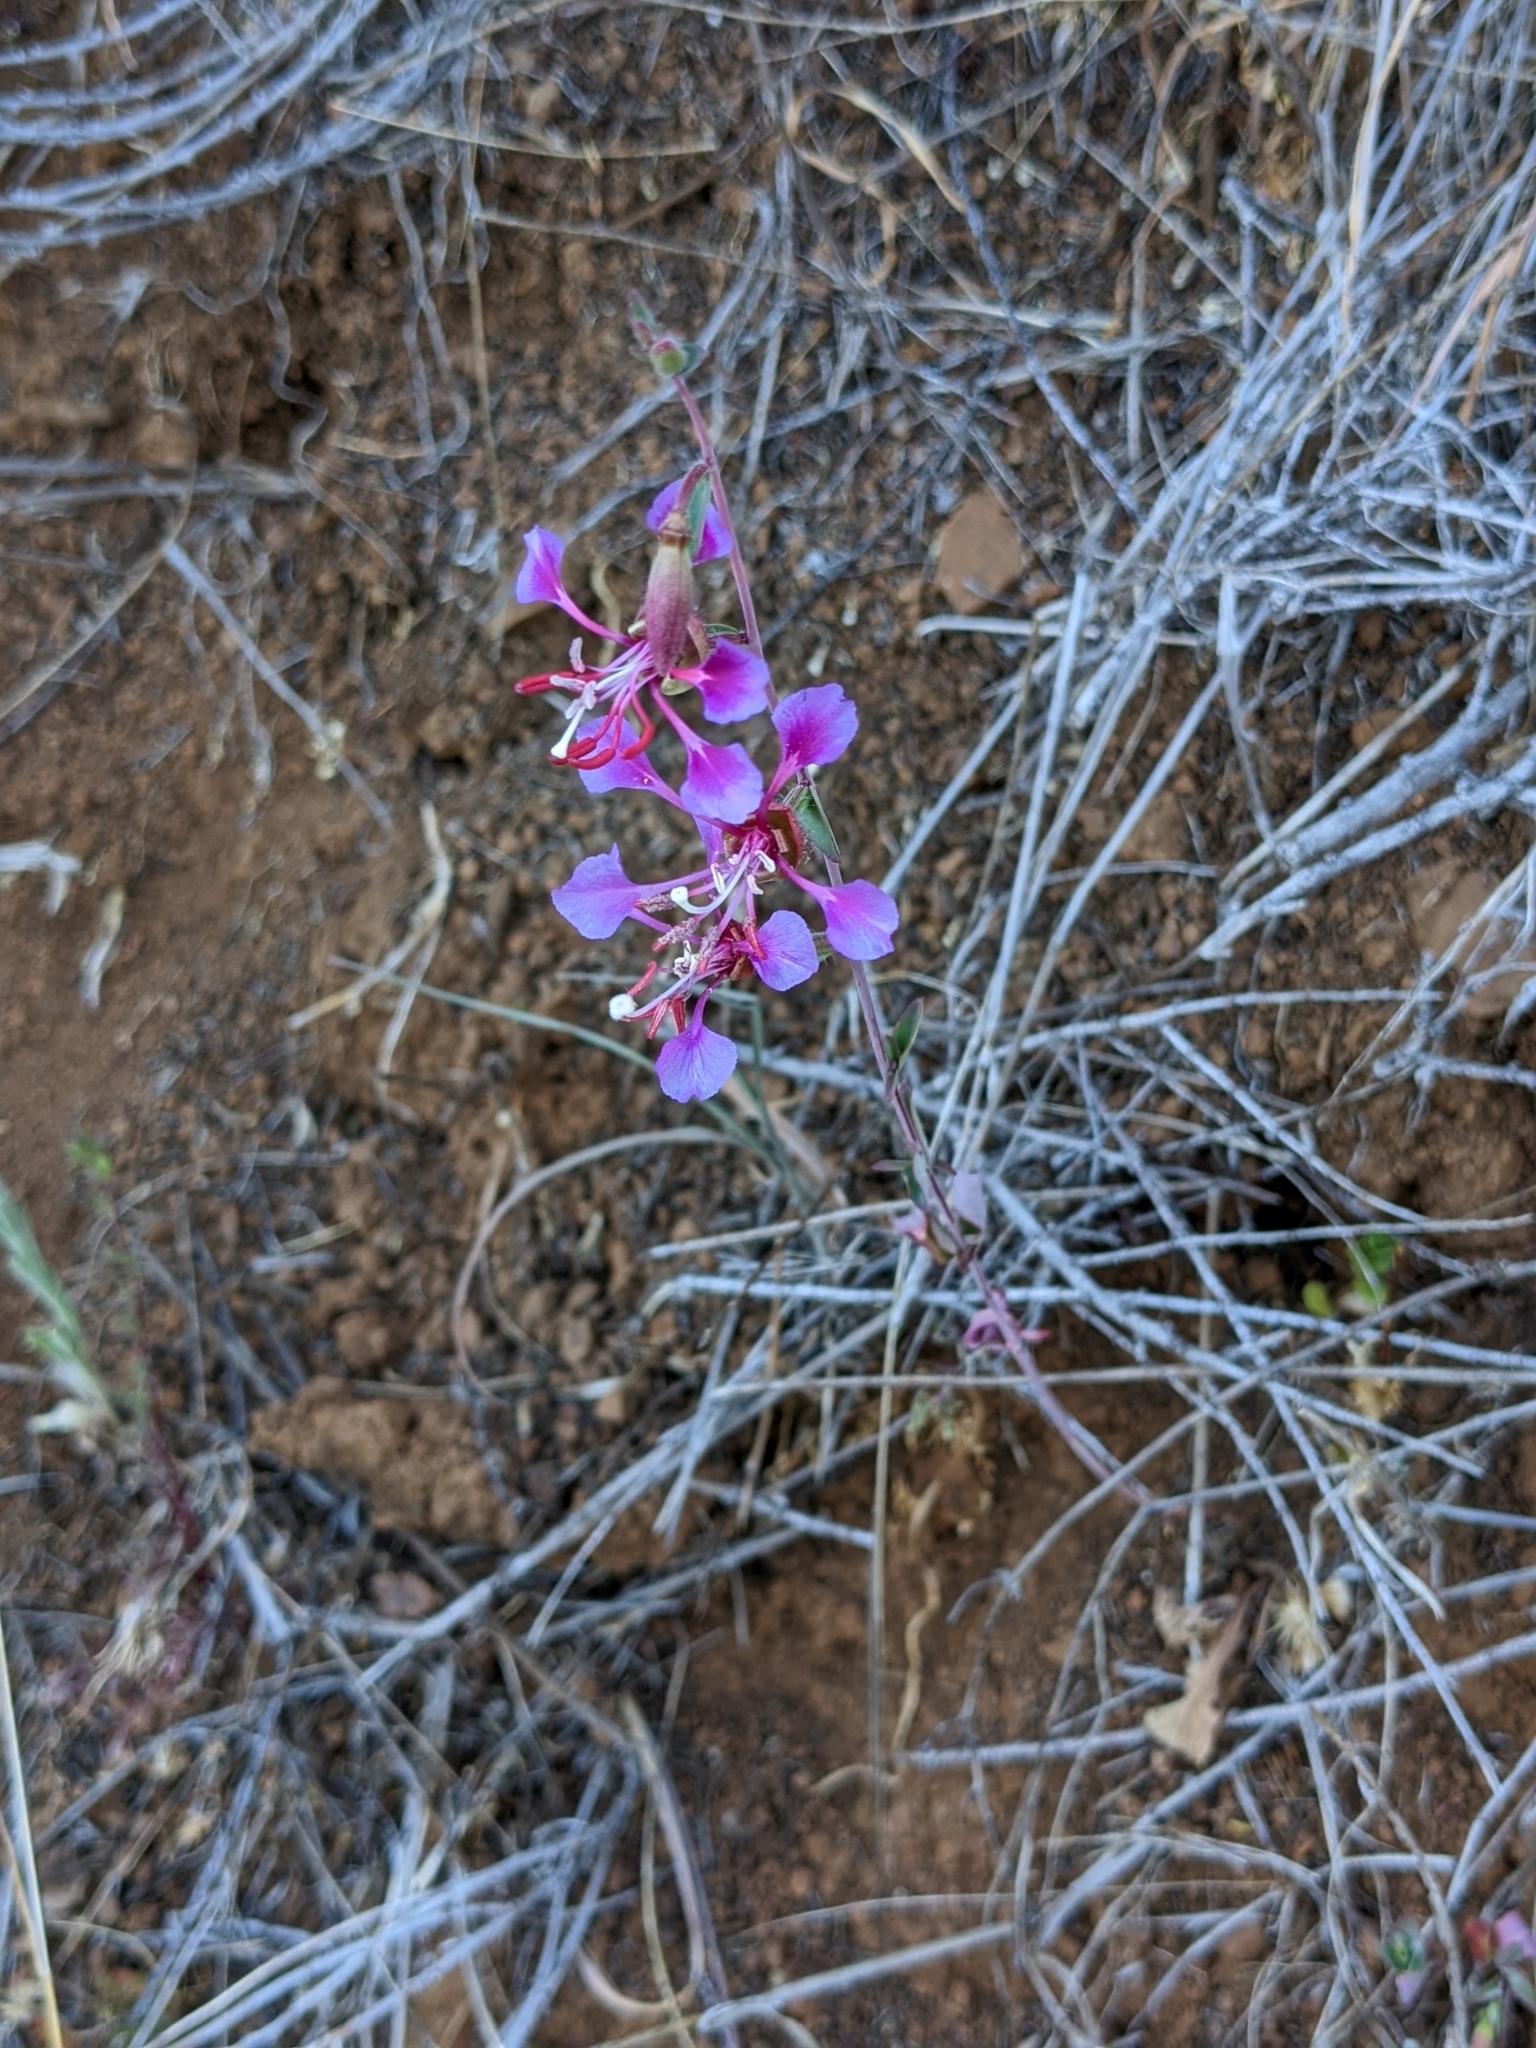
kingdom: Plantae
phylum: Tracheophyta
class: Magnoliopsida
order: Myrtales
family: Onagraceae
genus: Clarkia
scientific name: Clarkia unguiculata
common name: Clarkia
